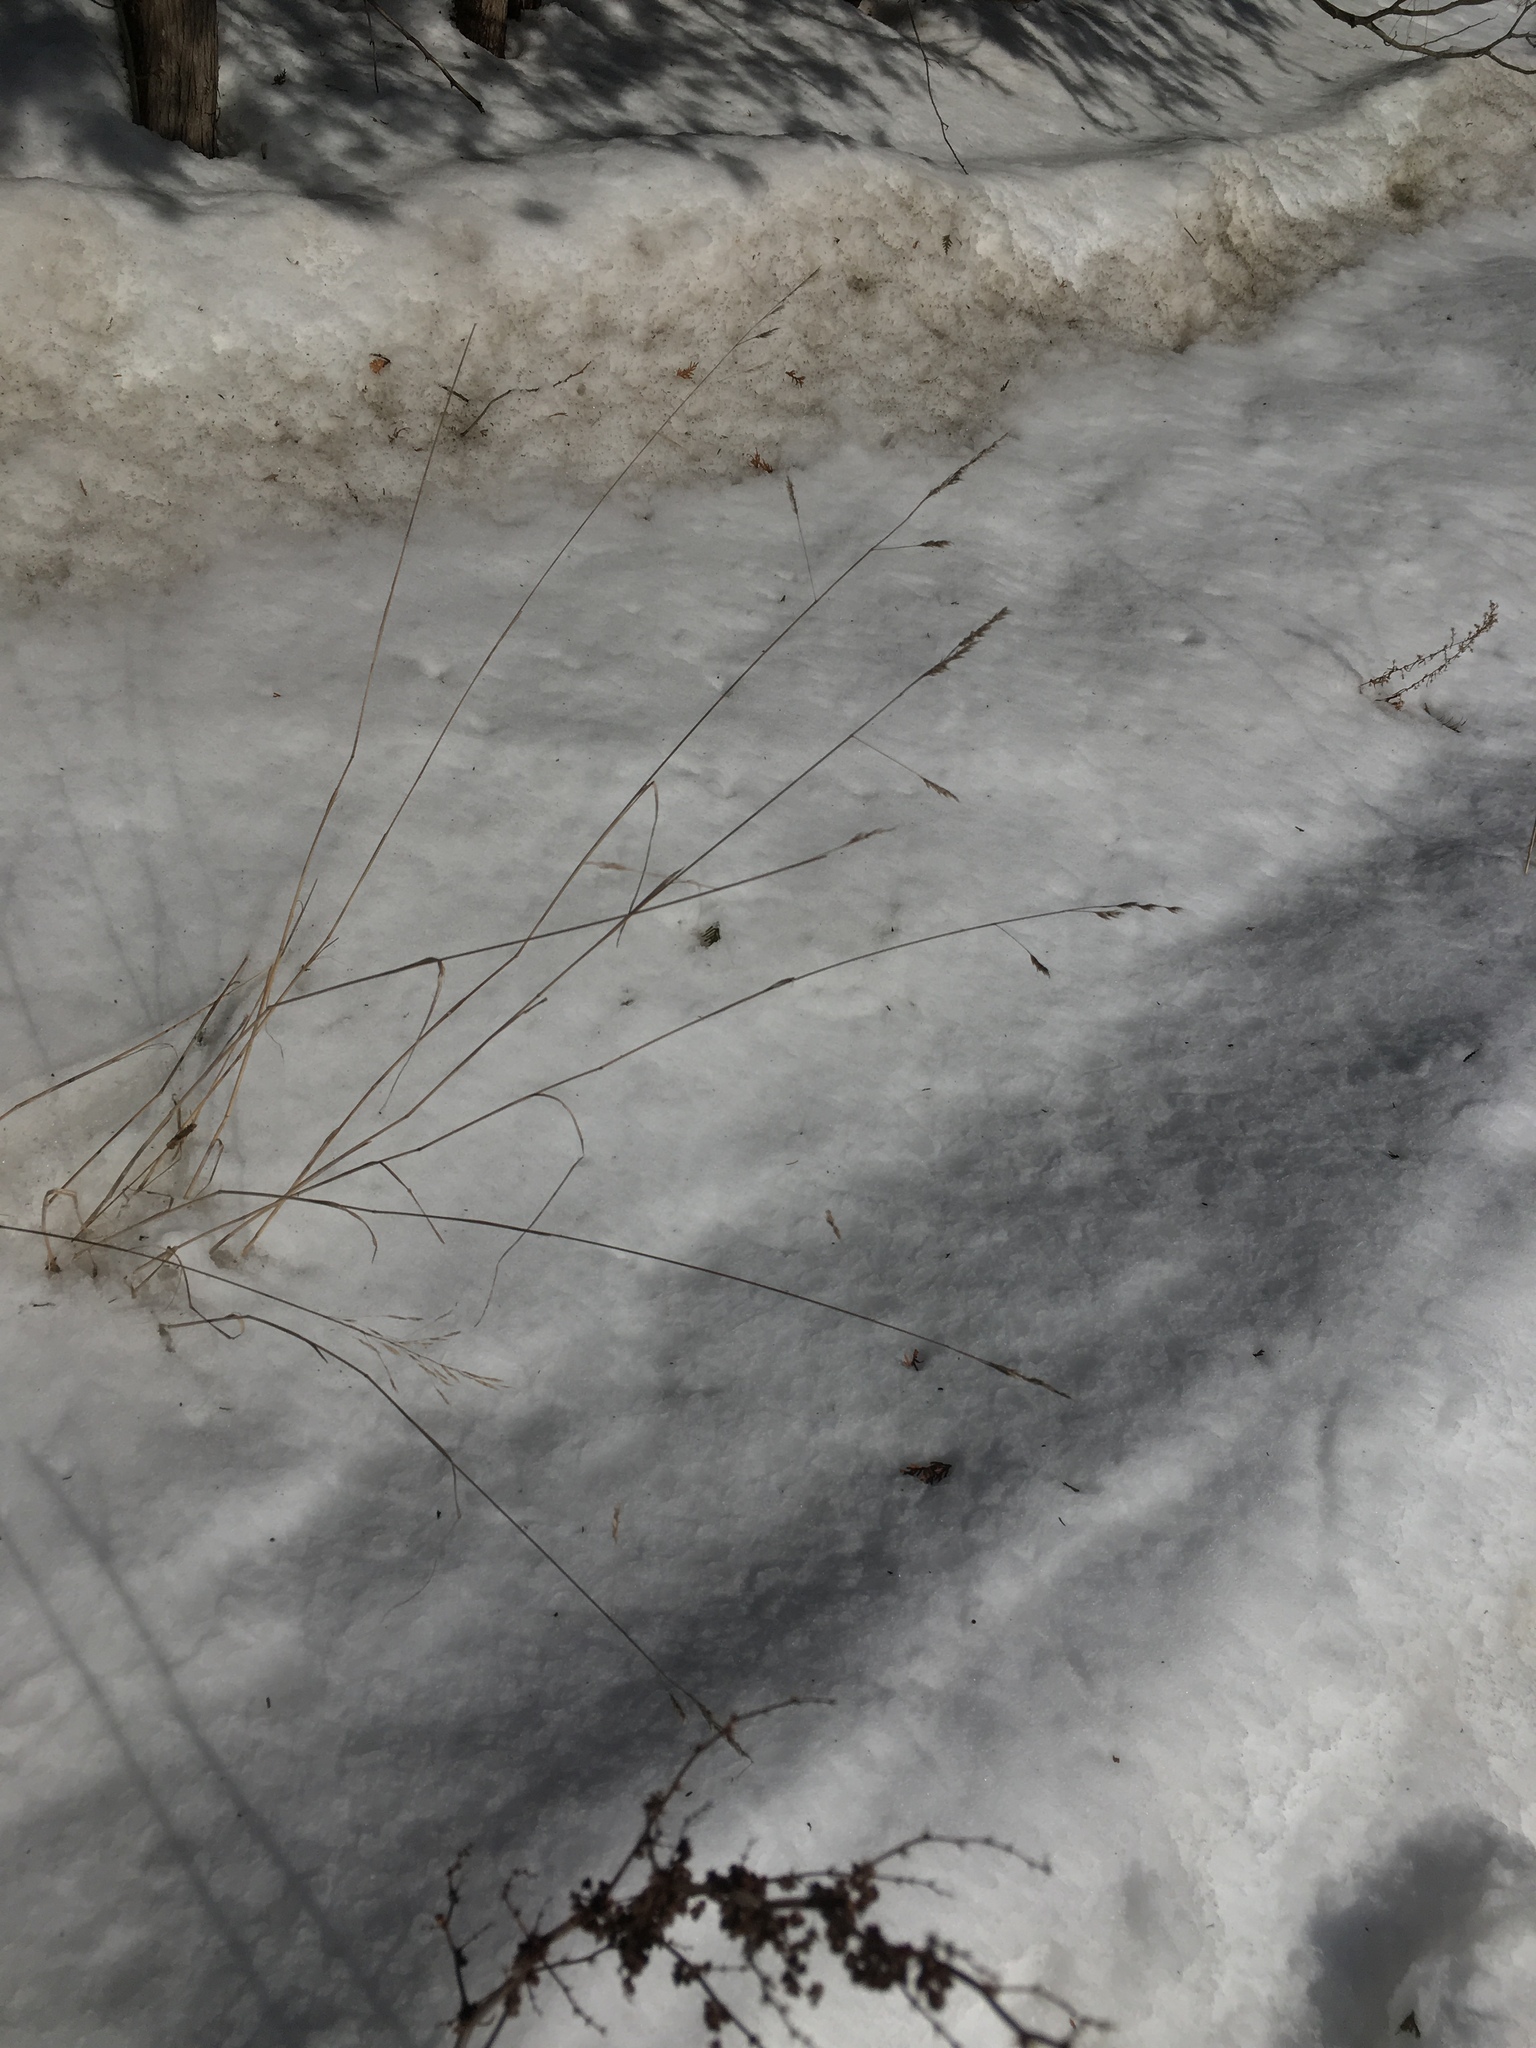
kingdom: Plantae
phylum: Tracheophyta
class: Liliopsida
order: Poales
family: Poaceae
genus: Dactylis
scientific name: Dactylis glomerata
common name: Orchardgrass
